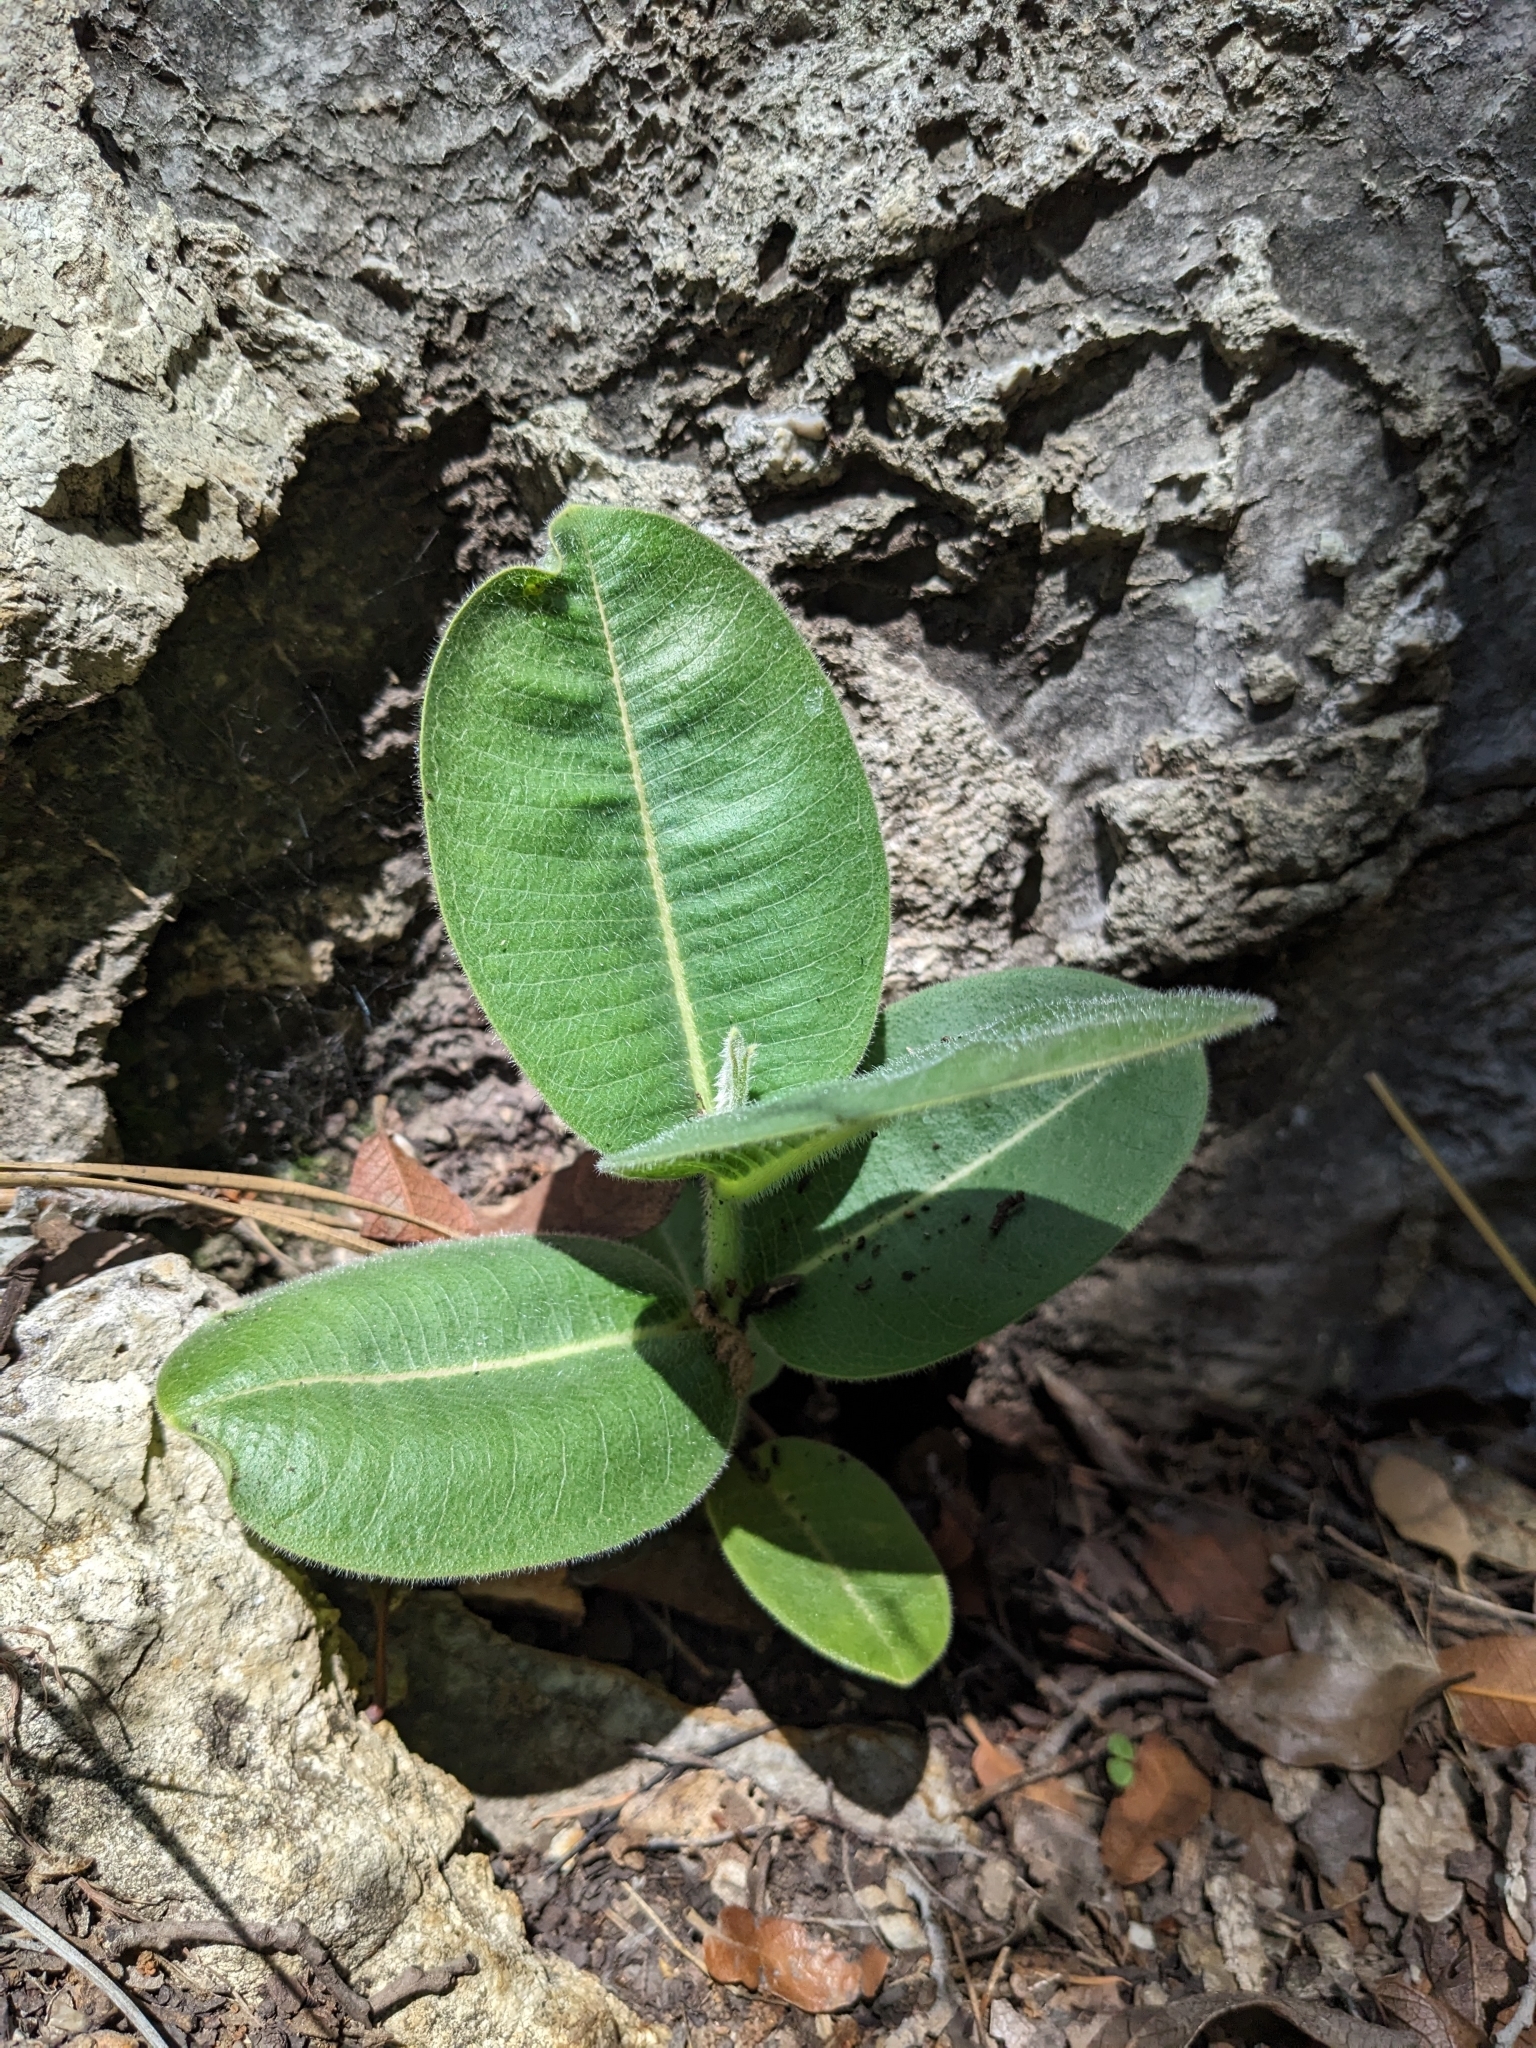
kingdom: Plantae
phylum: Tracheophyta
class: Magnoliopsida
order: Gentianales
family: Apocynaceae
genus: Asclepias
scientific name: Asclepias lemmonii
